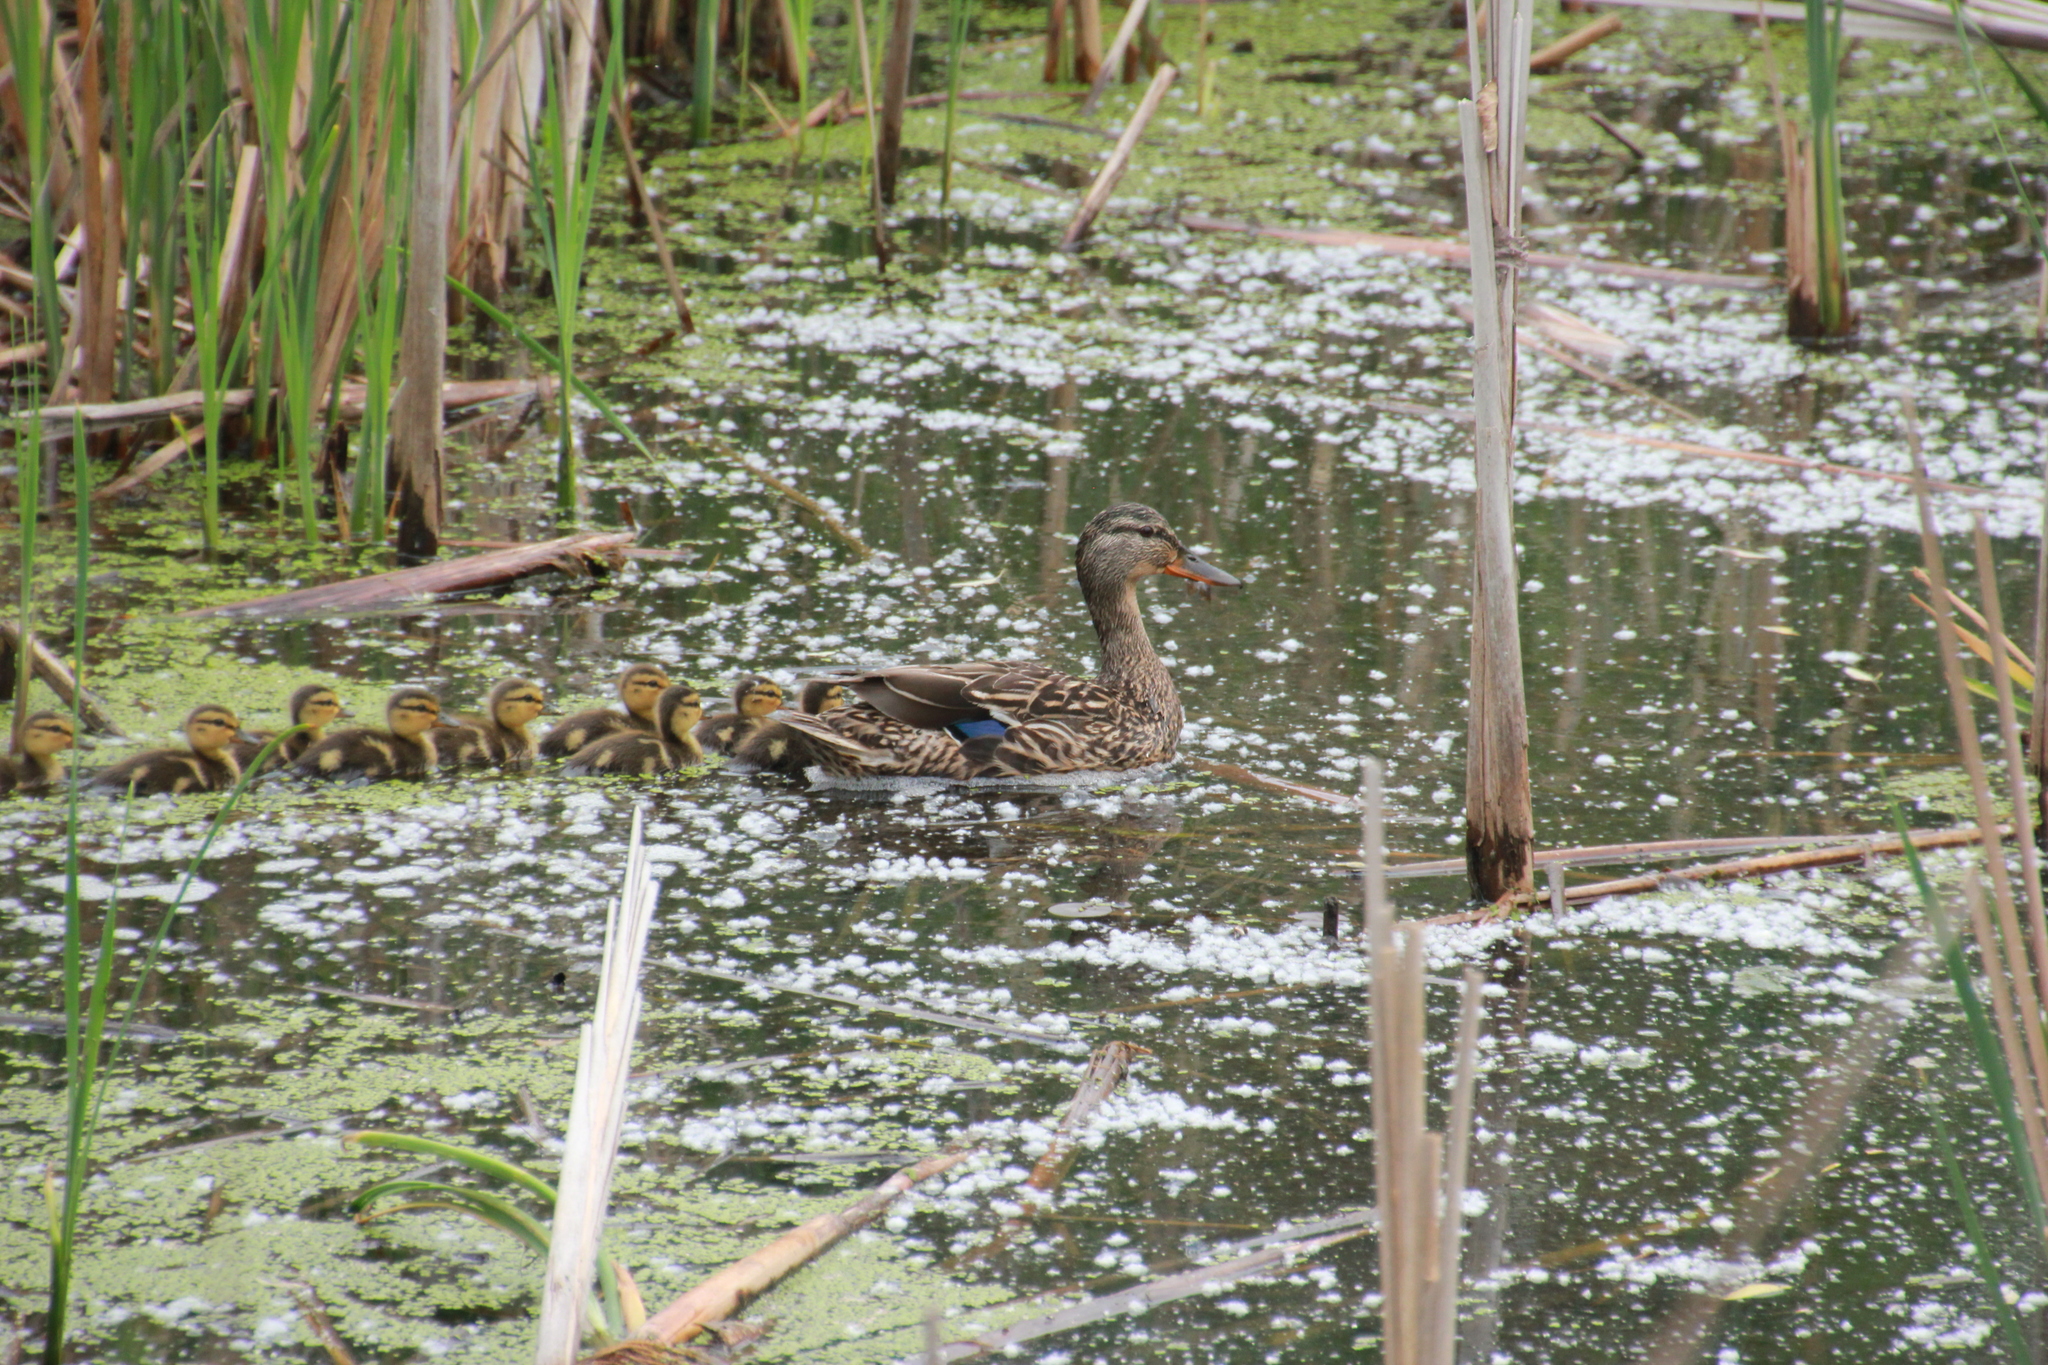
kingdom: Animalia
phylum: Chordata
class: Aves
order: Anseriformes
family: Anatidae
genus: Anas
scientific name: Anas platyrhynchos
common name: Mallard
